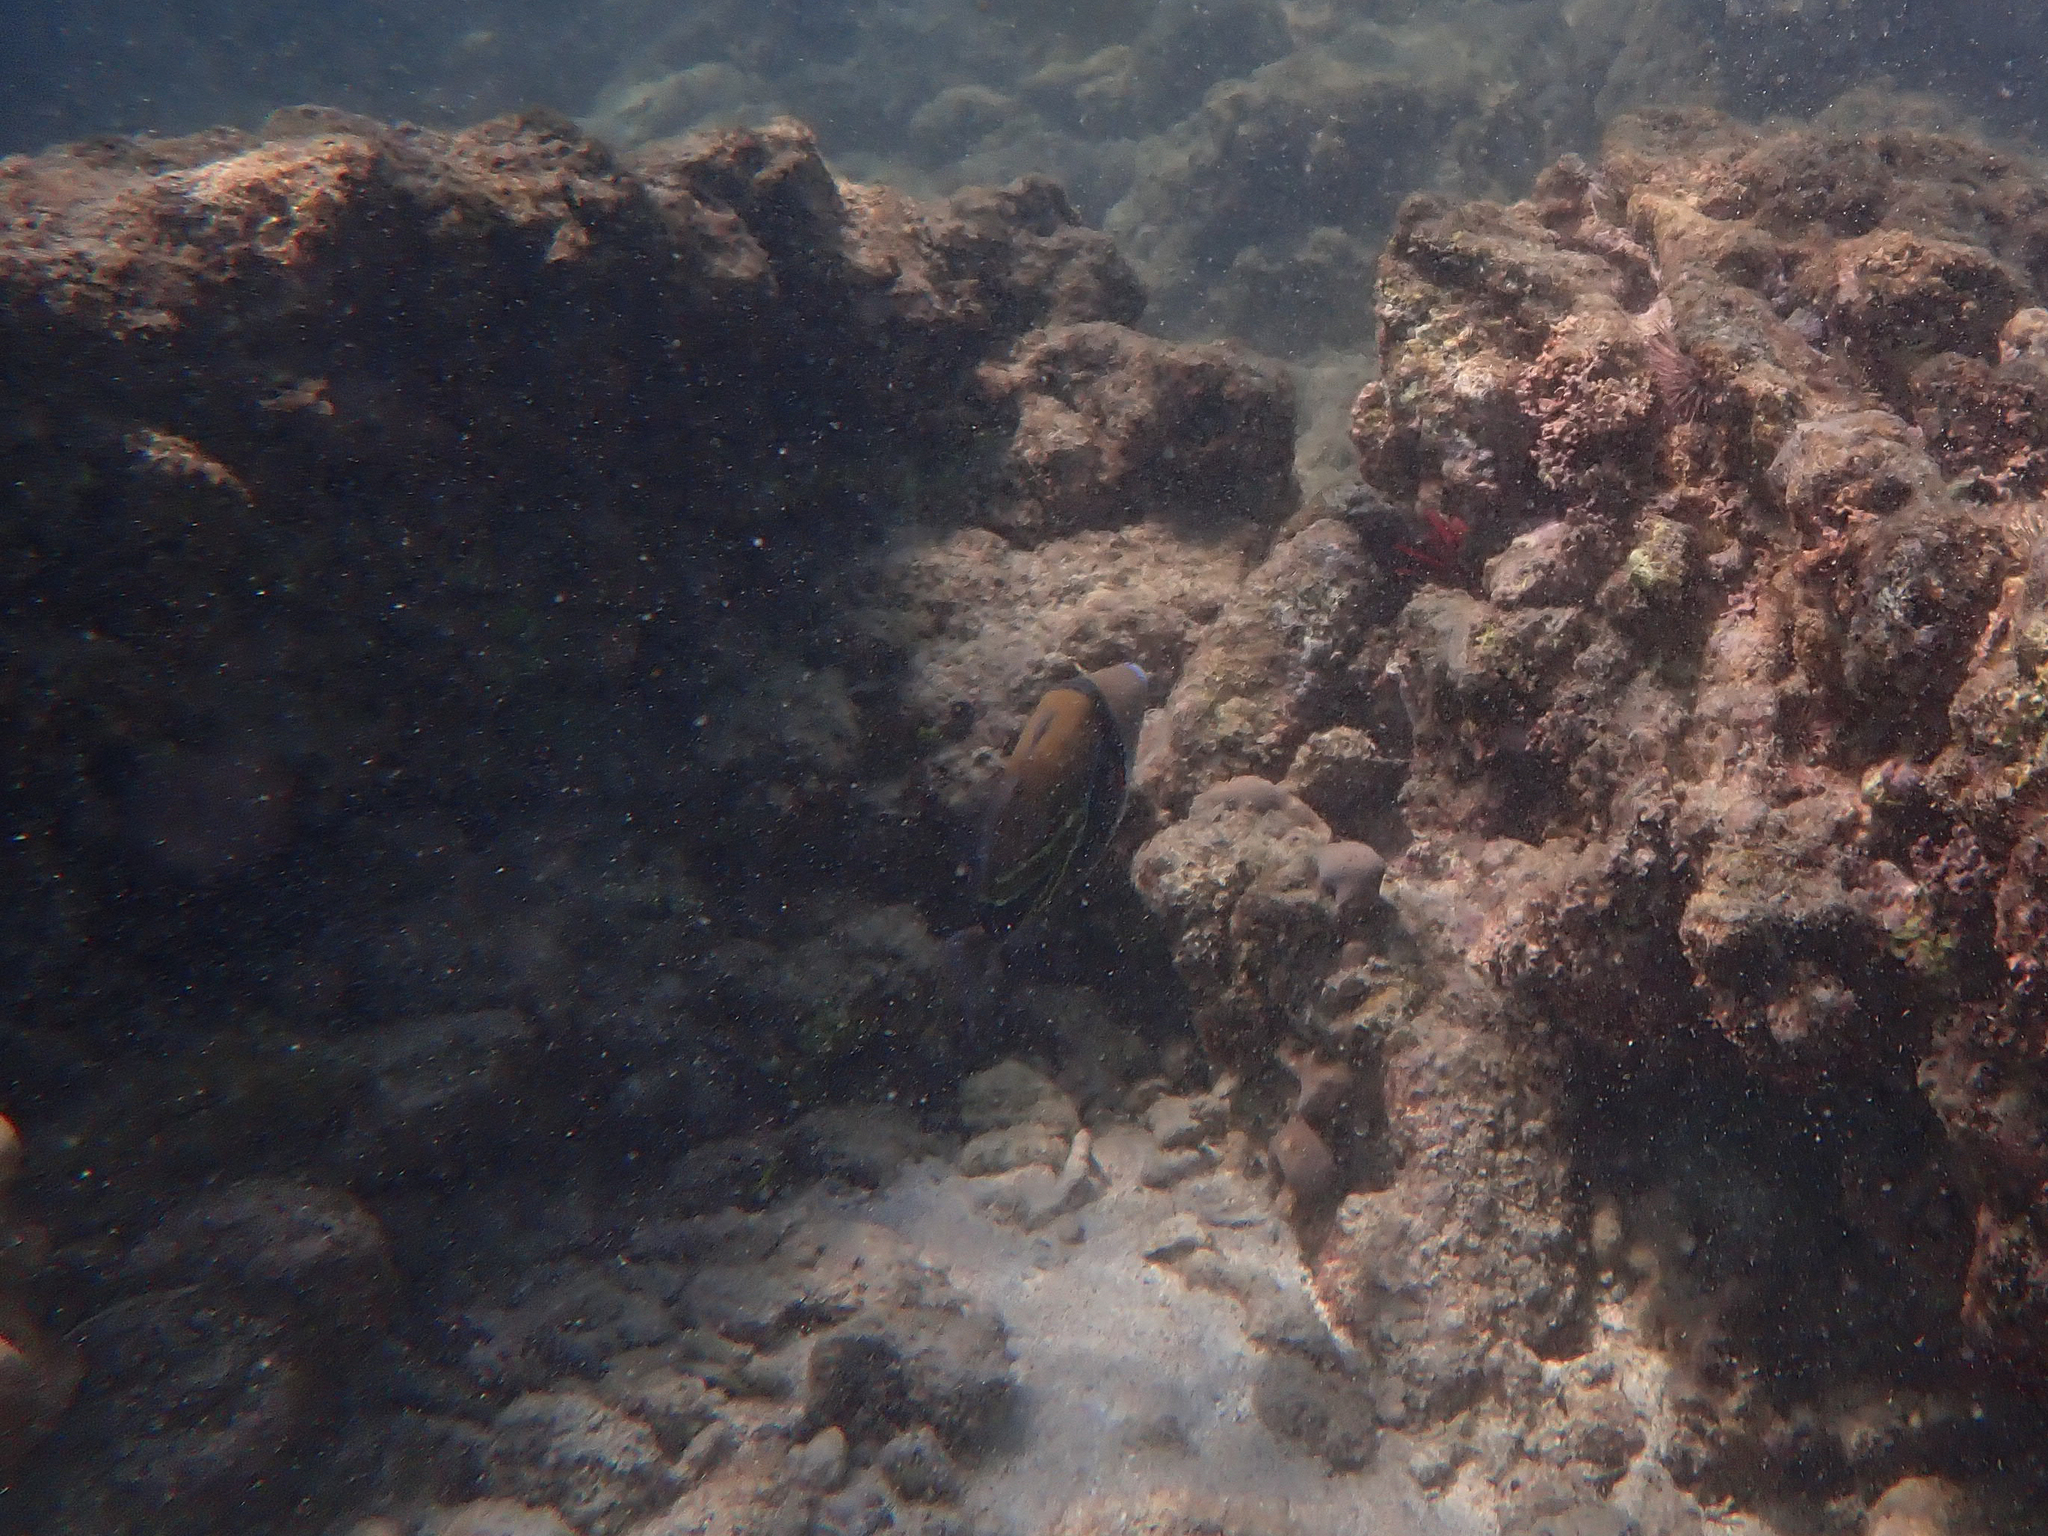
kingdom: Animalia
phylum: Chordata
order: Tetraodontiformes
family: Balistidae
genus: Rhinecanthus
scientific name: Rhinecanthus rectangulus
